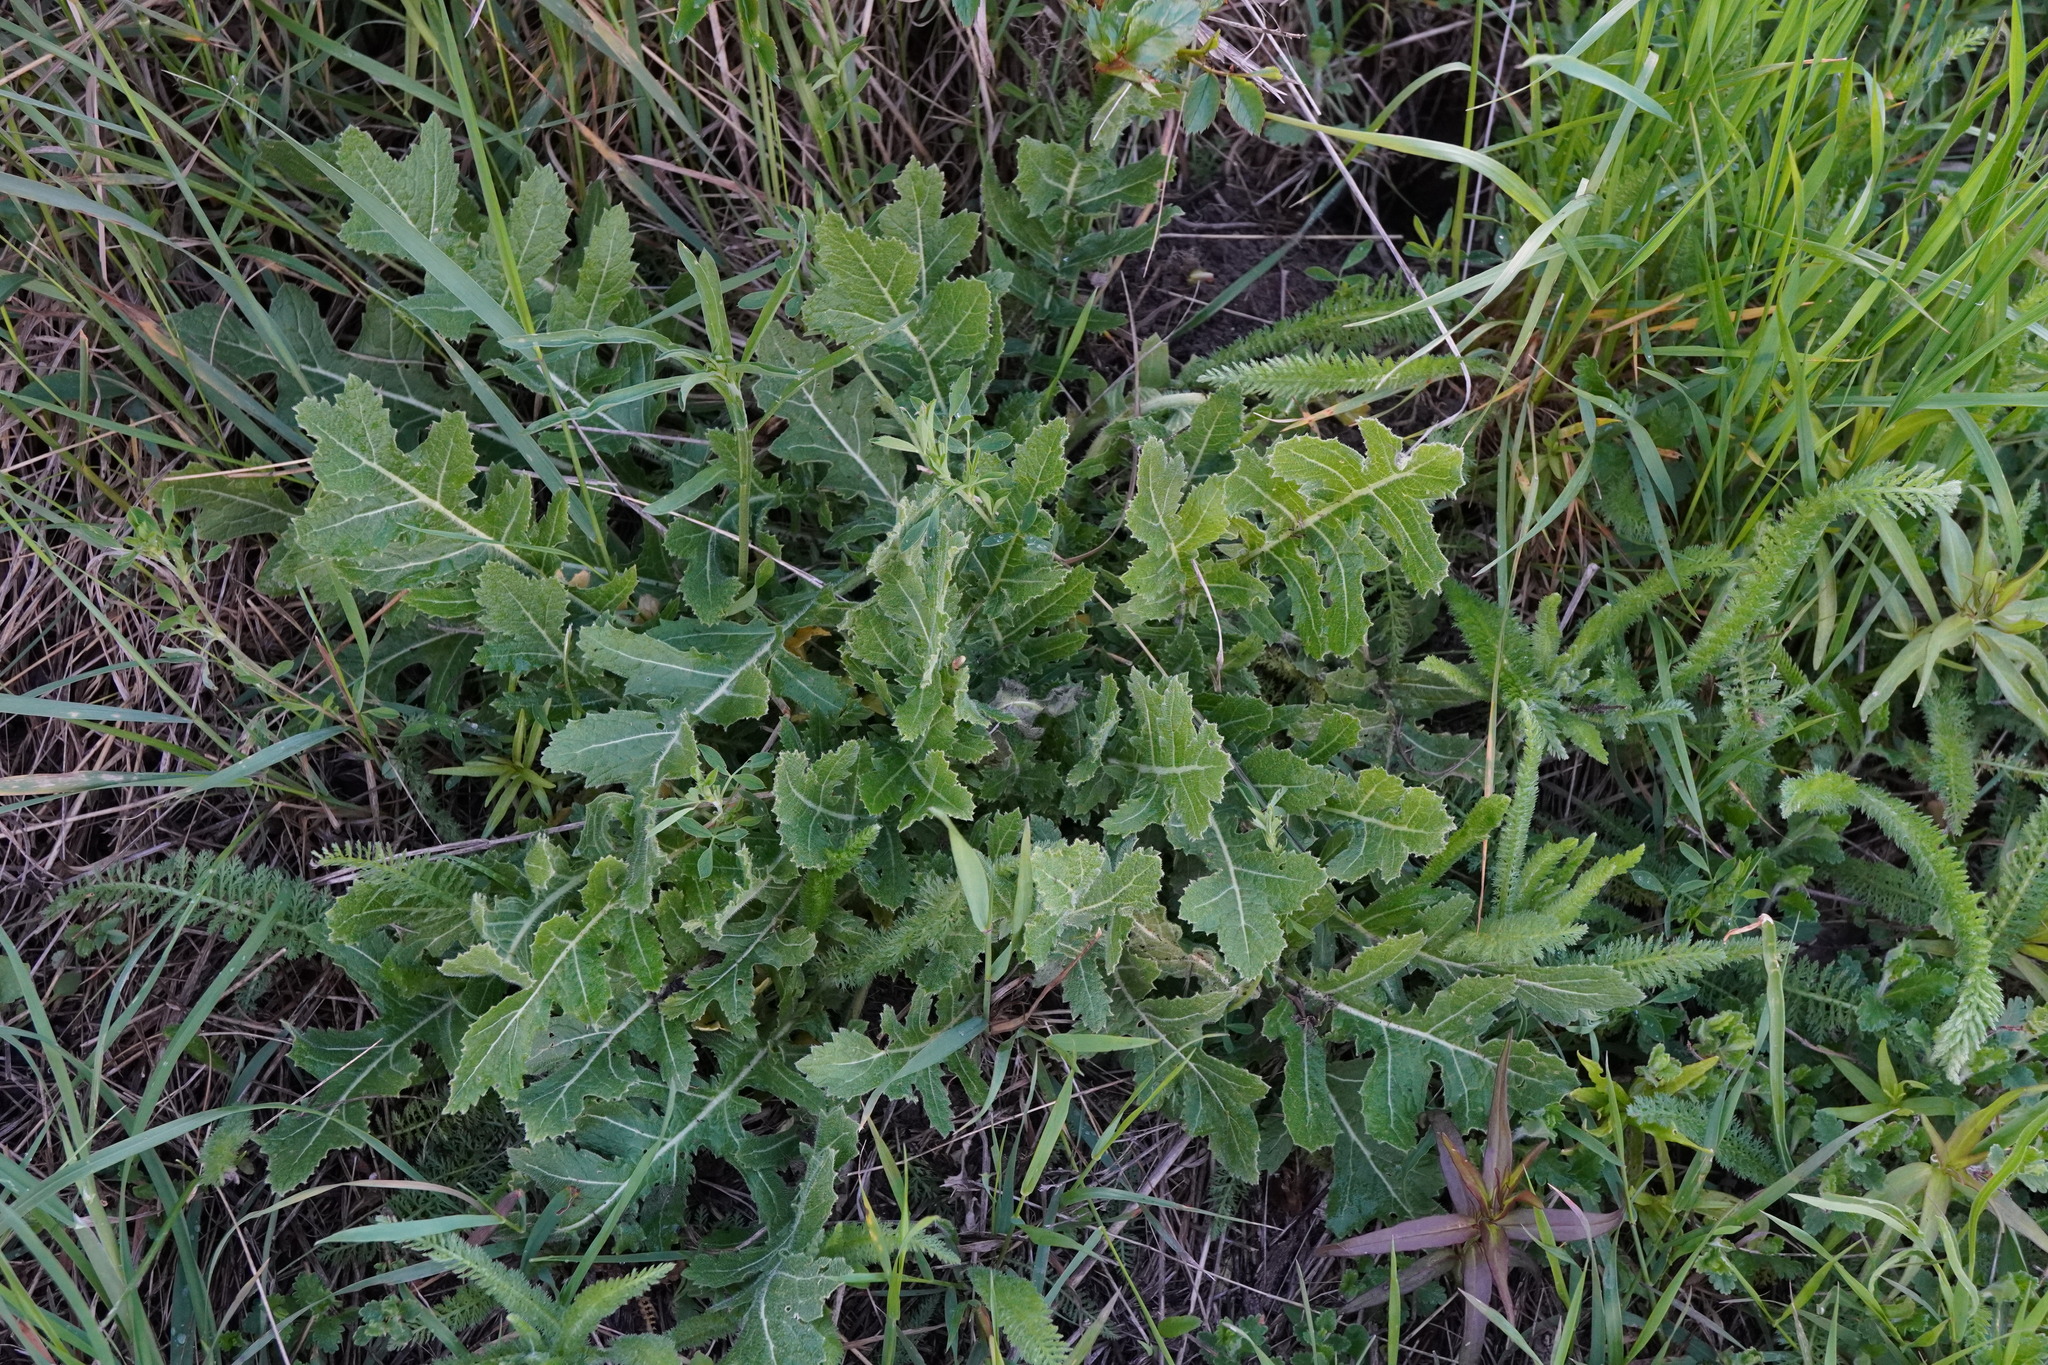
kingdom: Plantae
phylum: Tracheophyta
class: Magnoliopsida
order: Brassicales
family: Brassicaceae
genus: Rapistrum
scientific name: Rapistrum perenne
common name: Steppe cabbage
